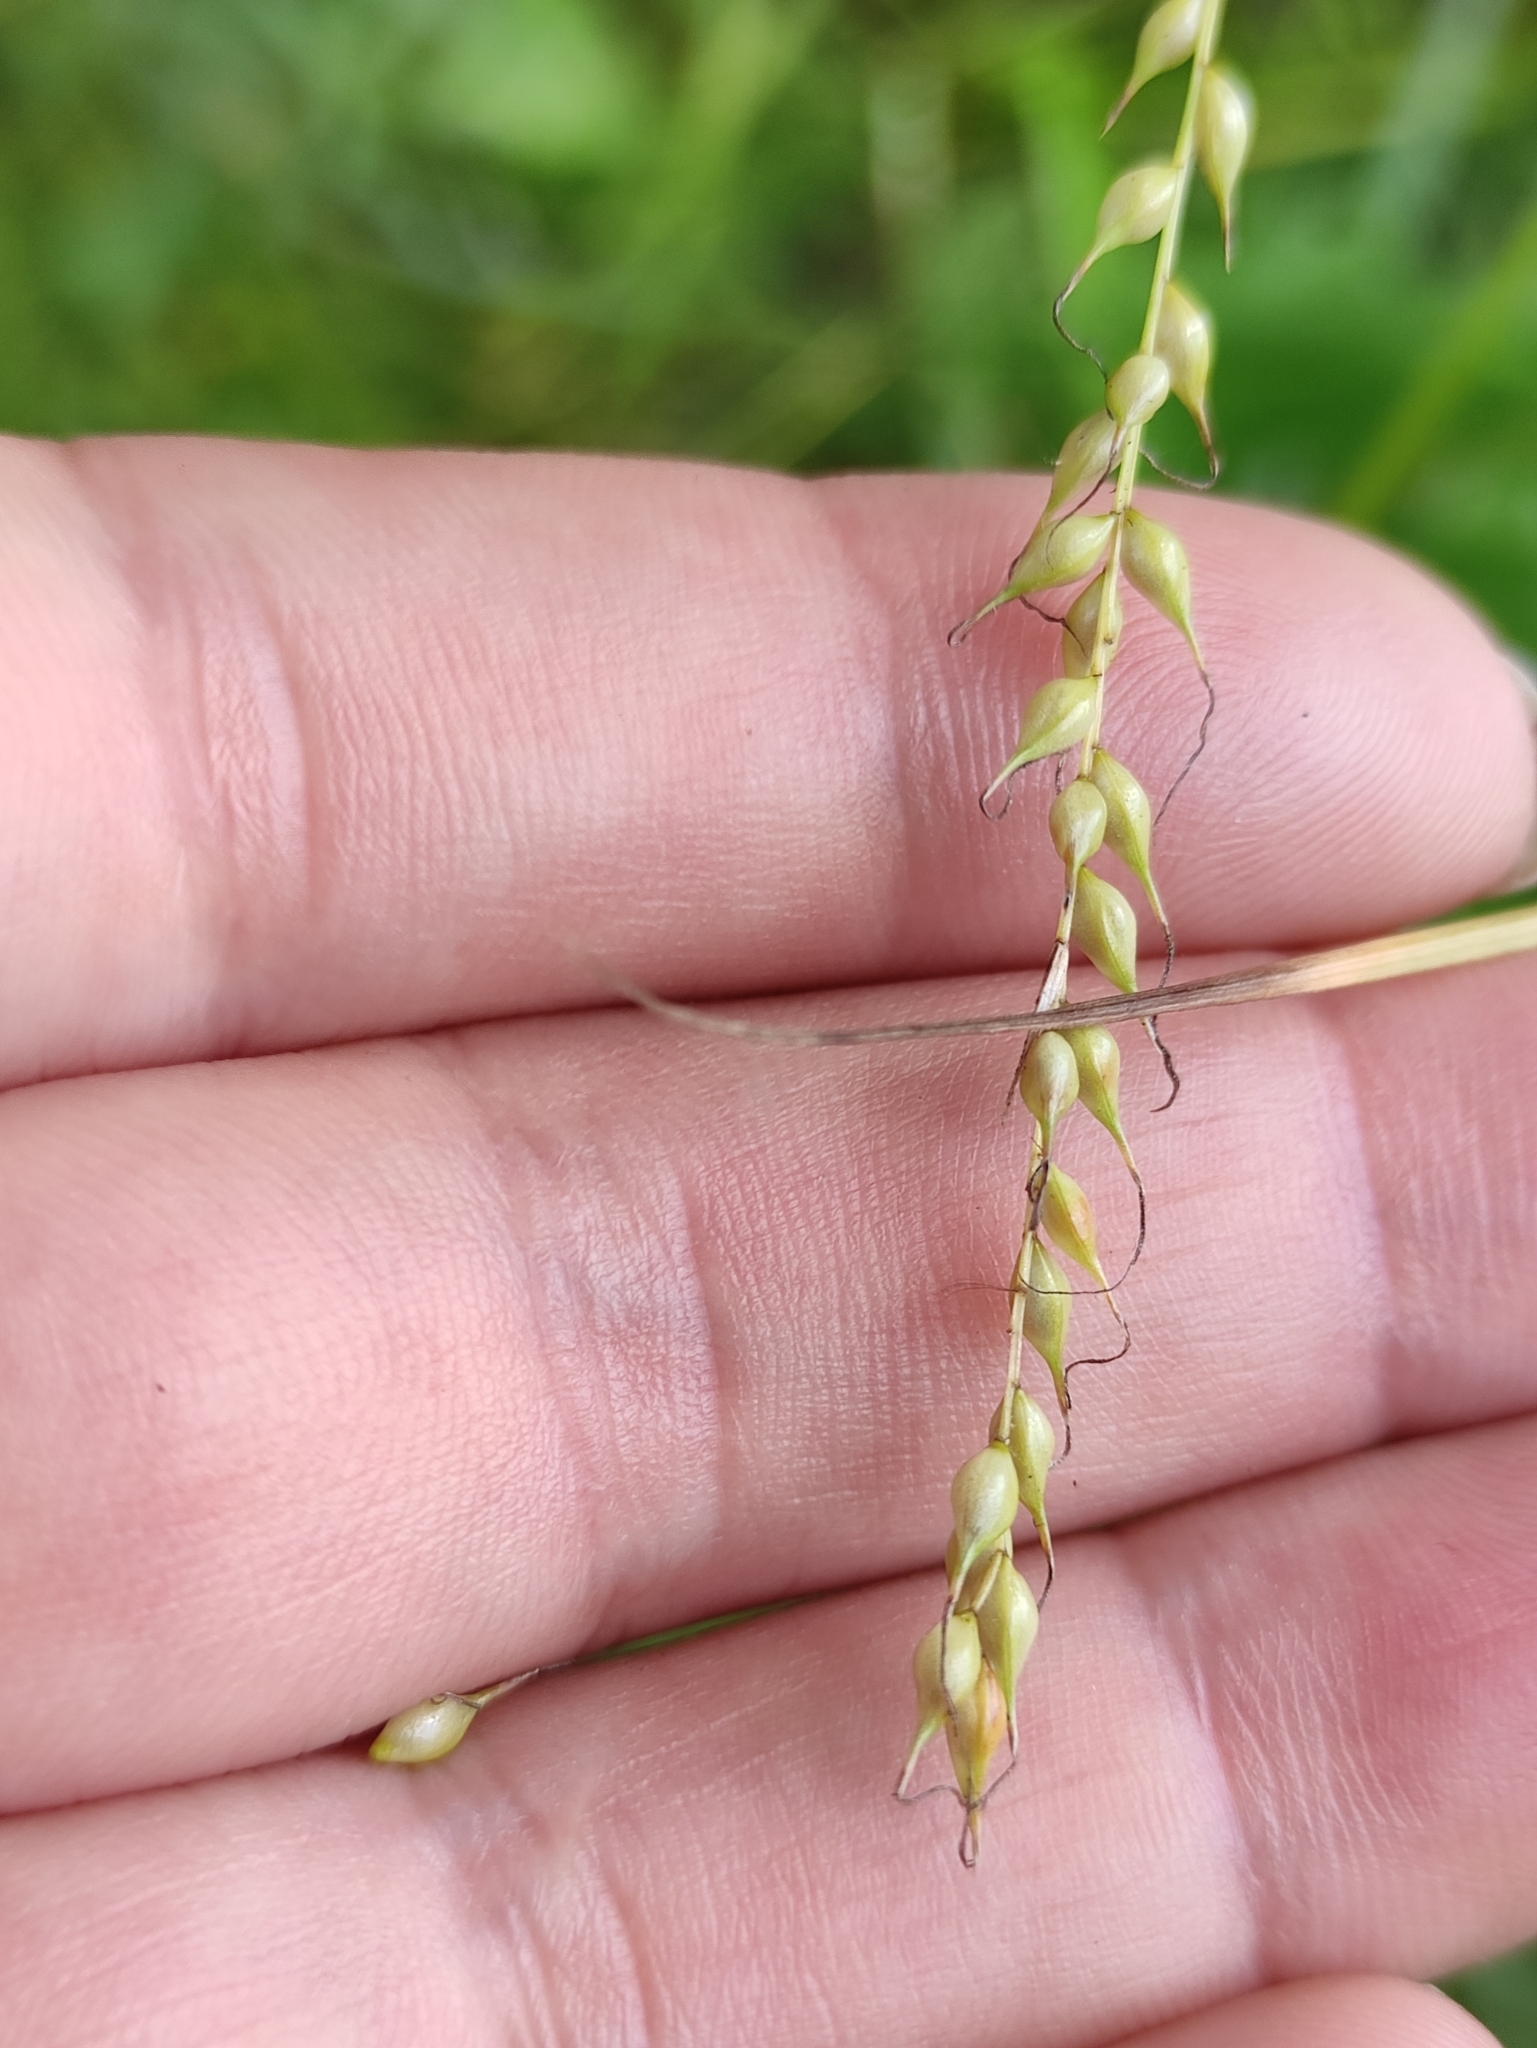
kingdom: Plantae
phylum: Tracheophyta
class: Liliopsida
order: Poales
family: Cyperaceae
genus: Carex
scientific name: Carex arnellii
